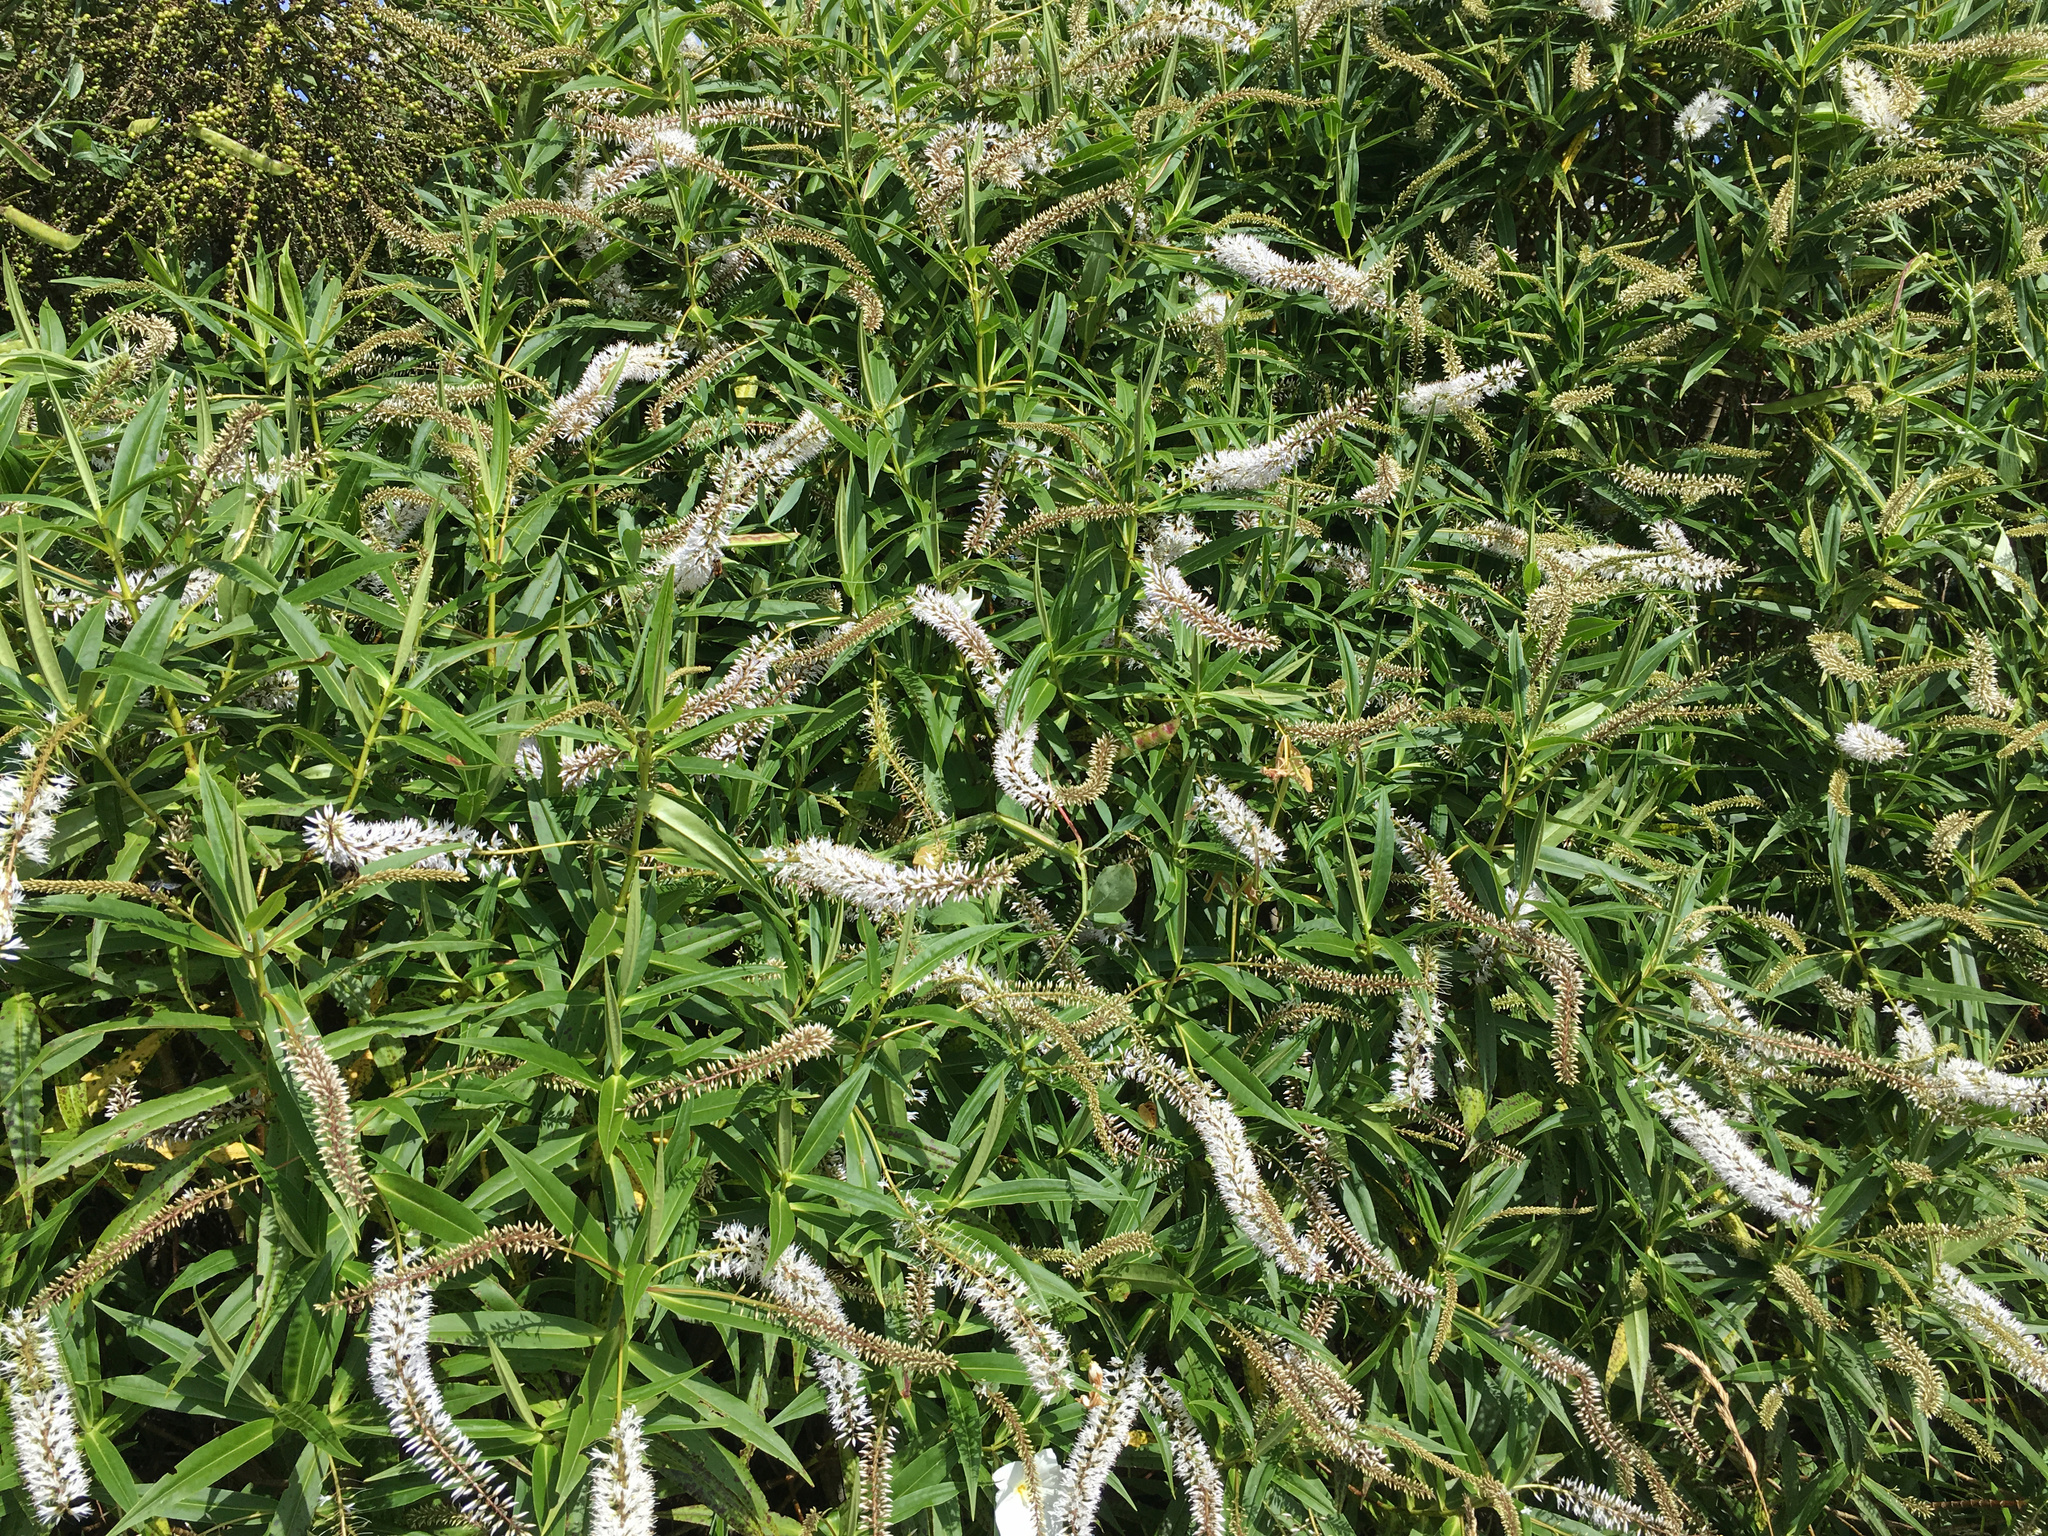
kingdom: Plantae
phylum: Tracheophyta
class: Magnoliopsida
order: Lamiales
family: Plantaginaceae
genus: Veronica
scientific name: Veronica salicifolia
